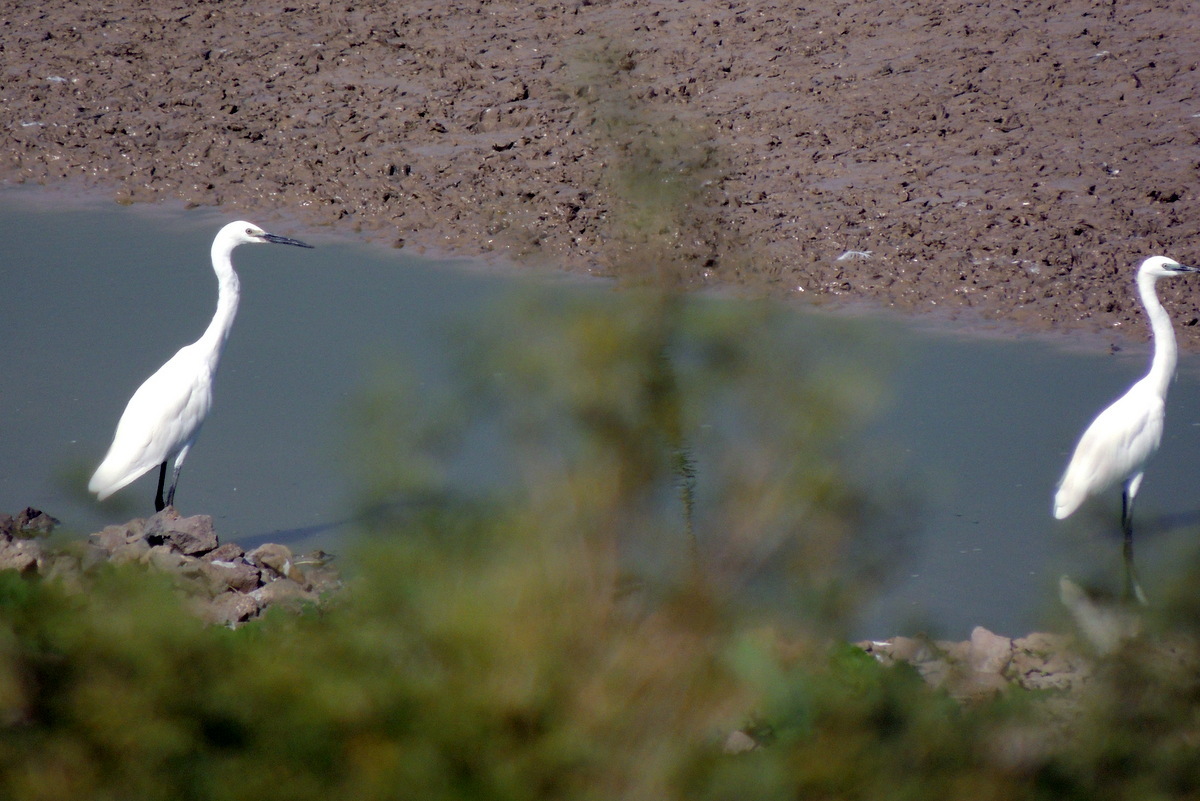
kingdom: Animalia
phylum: Chordata
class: Aves
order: Pelecaniformes
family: Ardeidae
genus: Egretta
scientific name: Egretta garzetta
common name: Little egret
